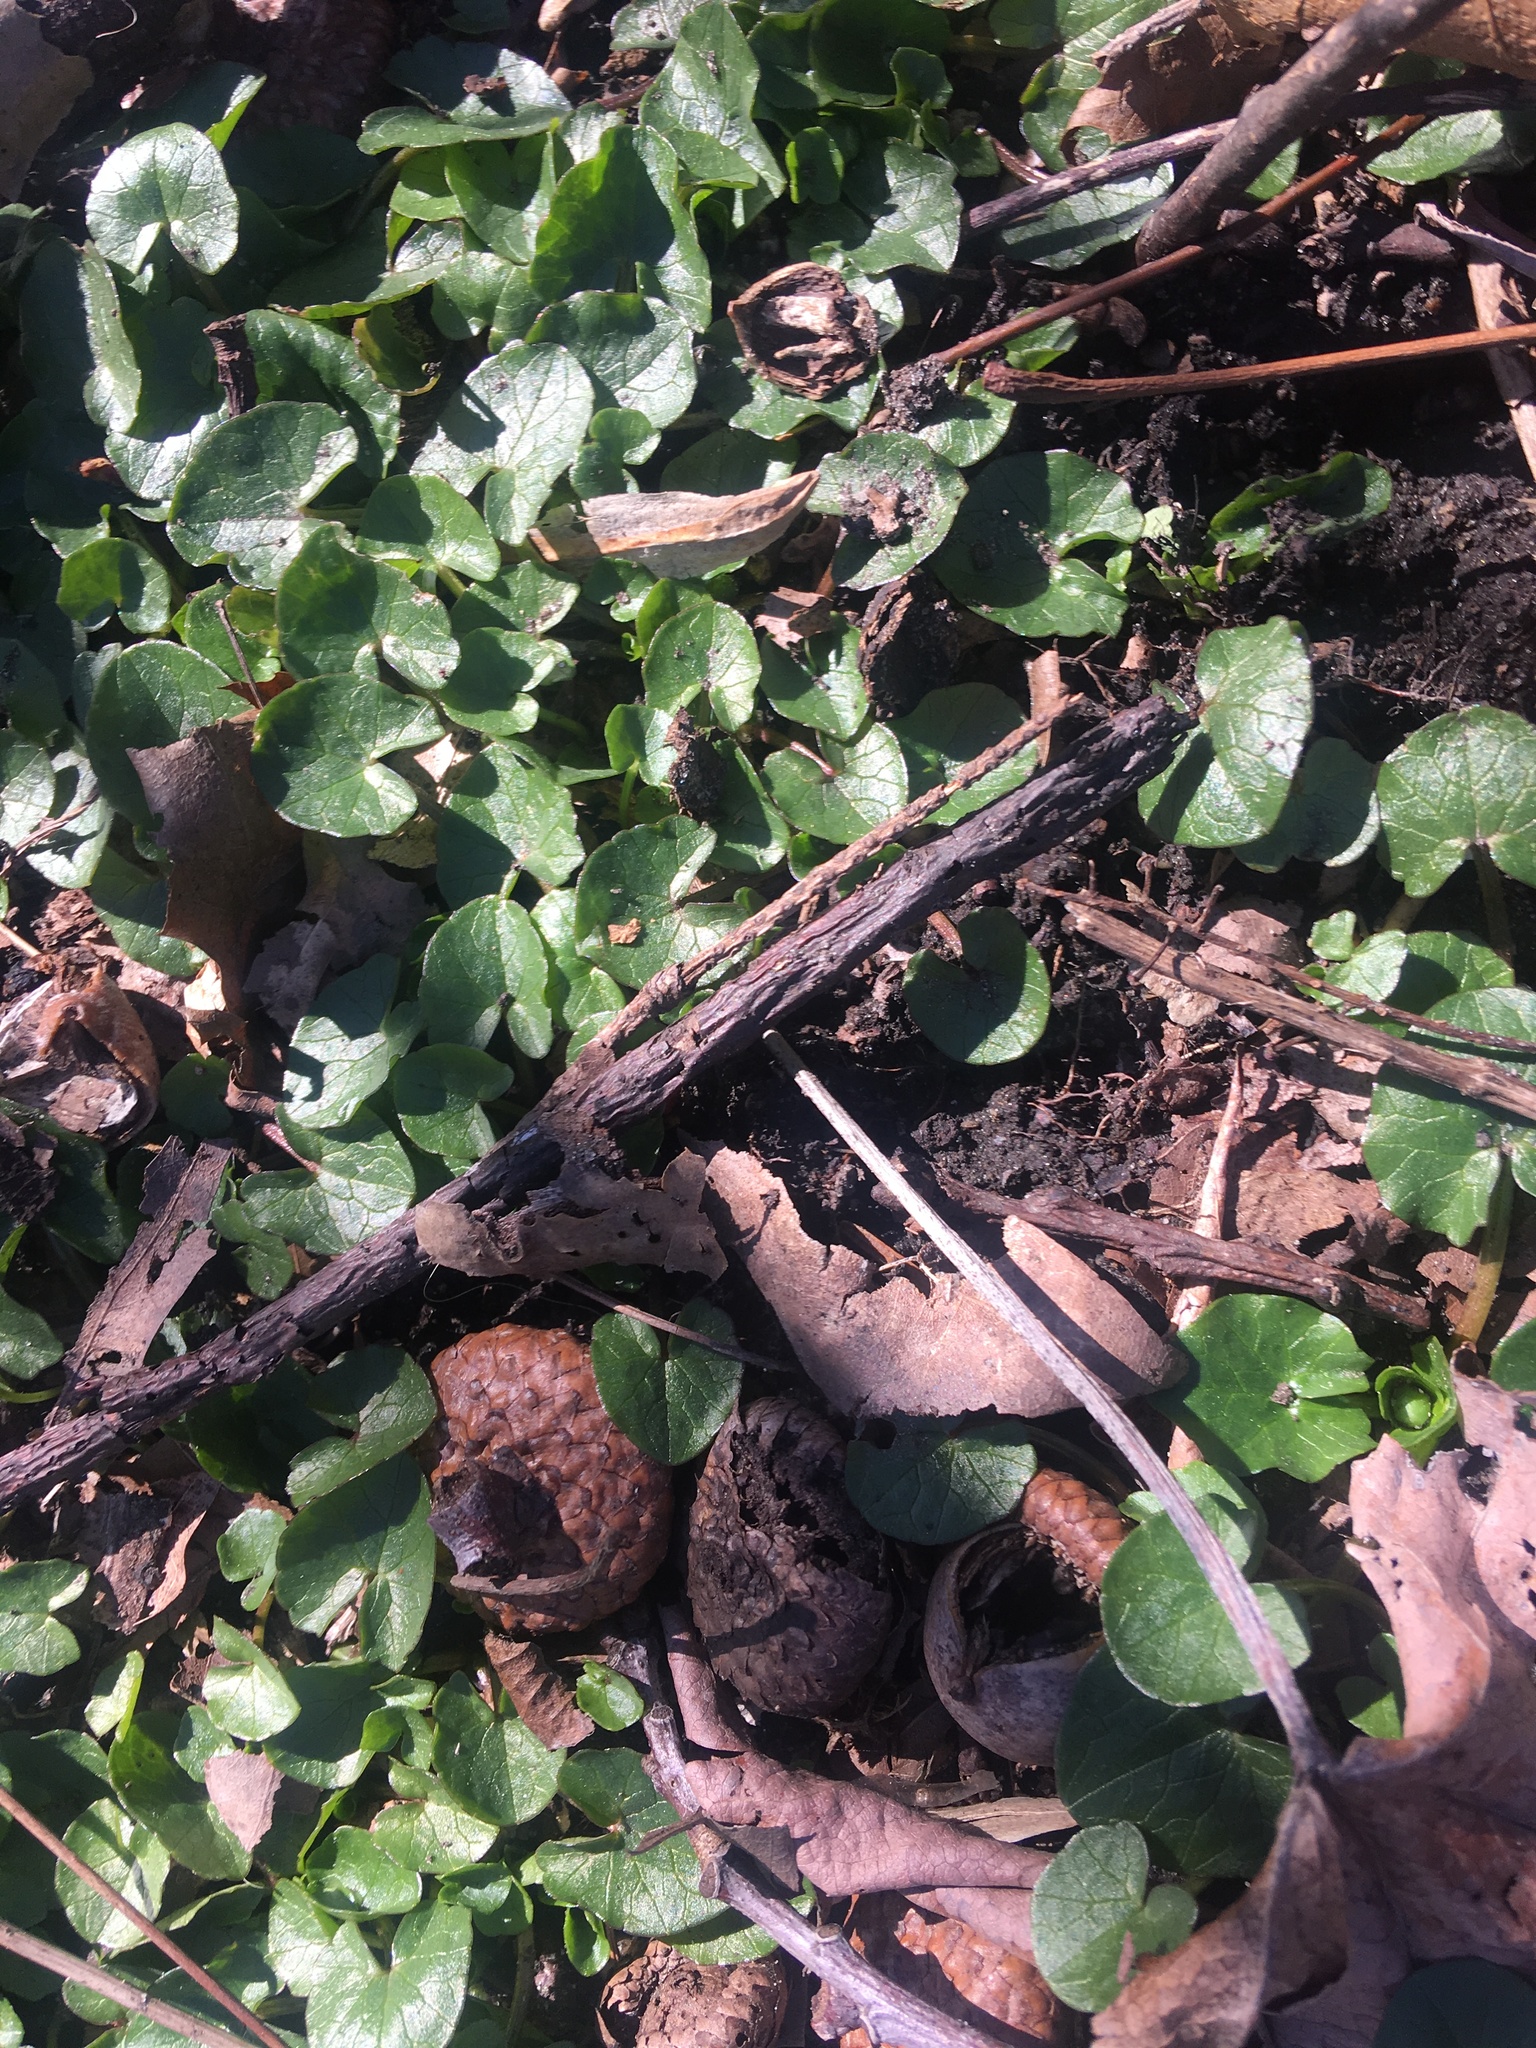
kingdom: Plantae
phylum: Tracheophyta
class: Magnoliopsida
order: Ranunculales
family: Ranunculaceae
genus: Ficaria
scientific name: Ficaria verna
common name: Lesser celandine
